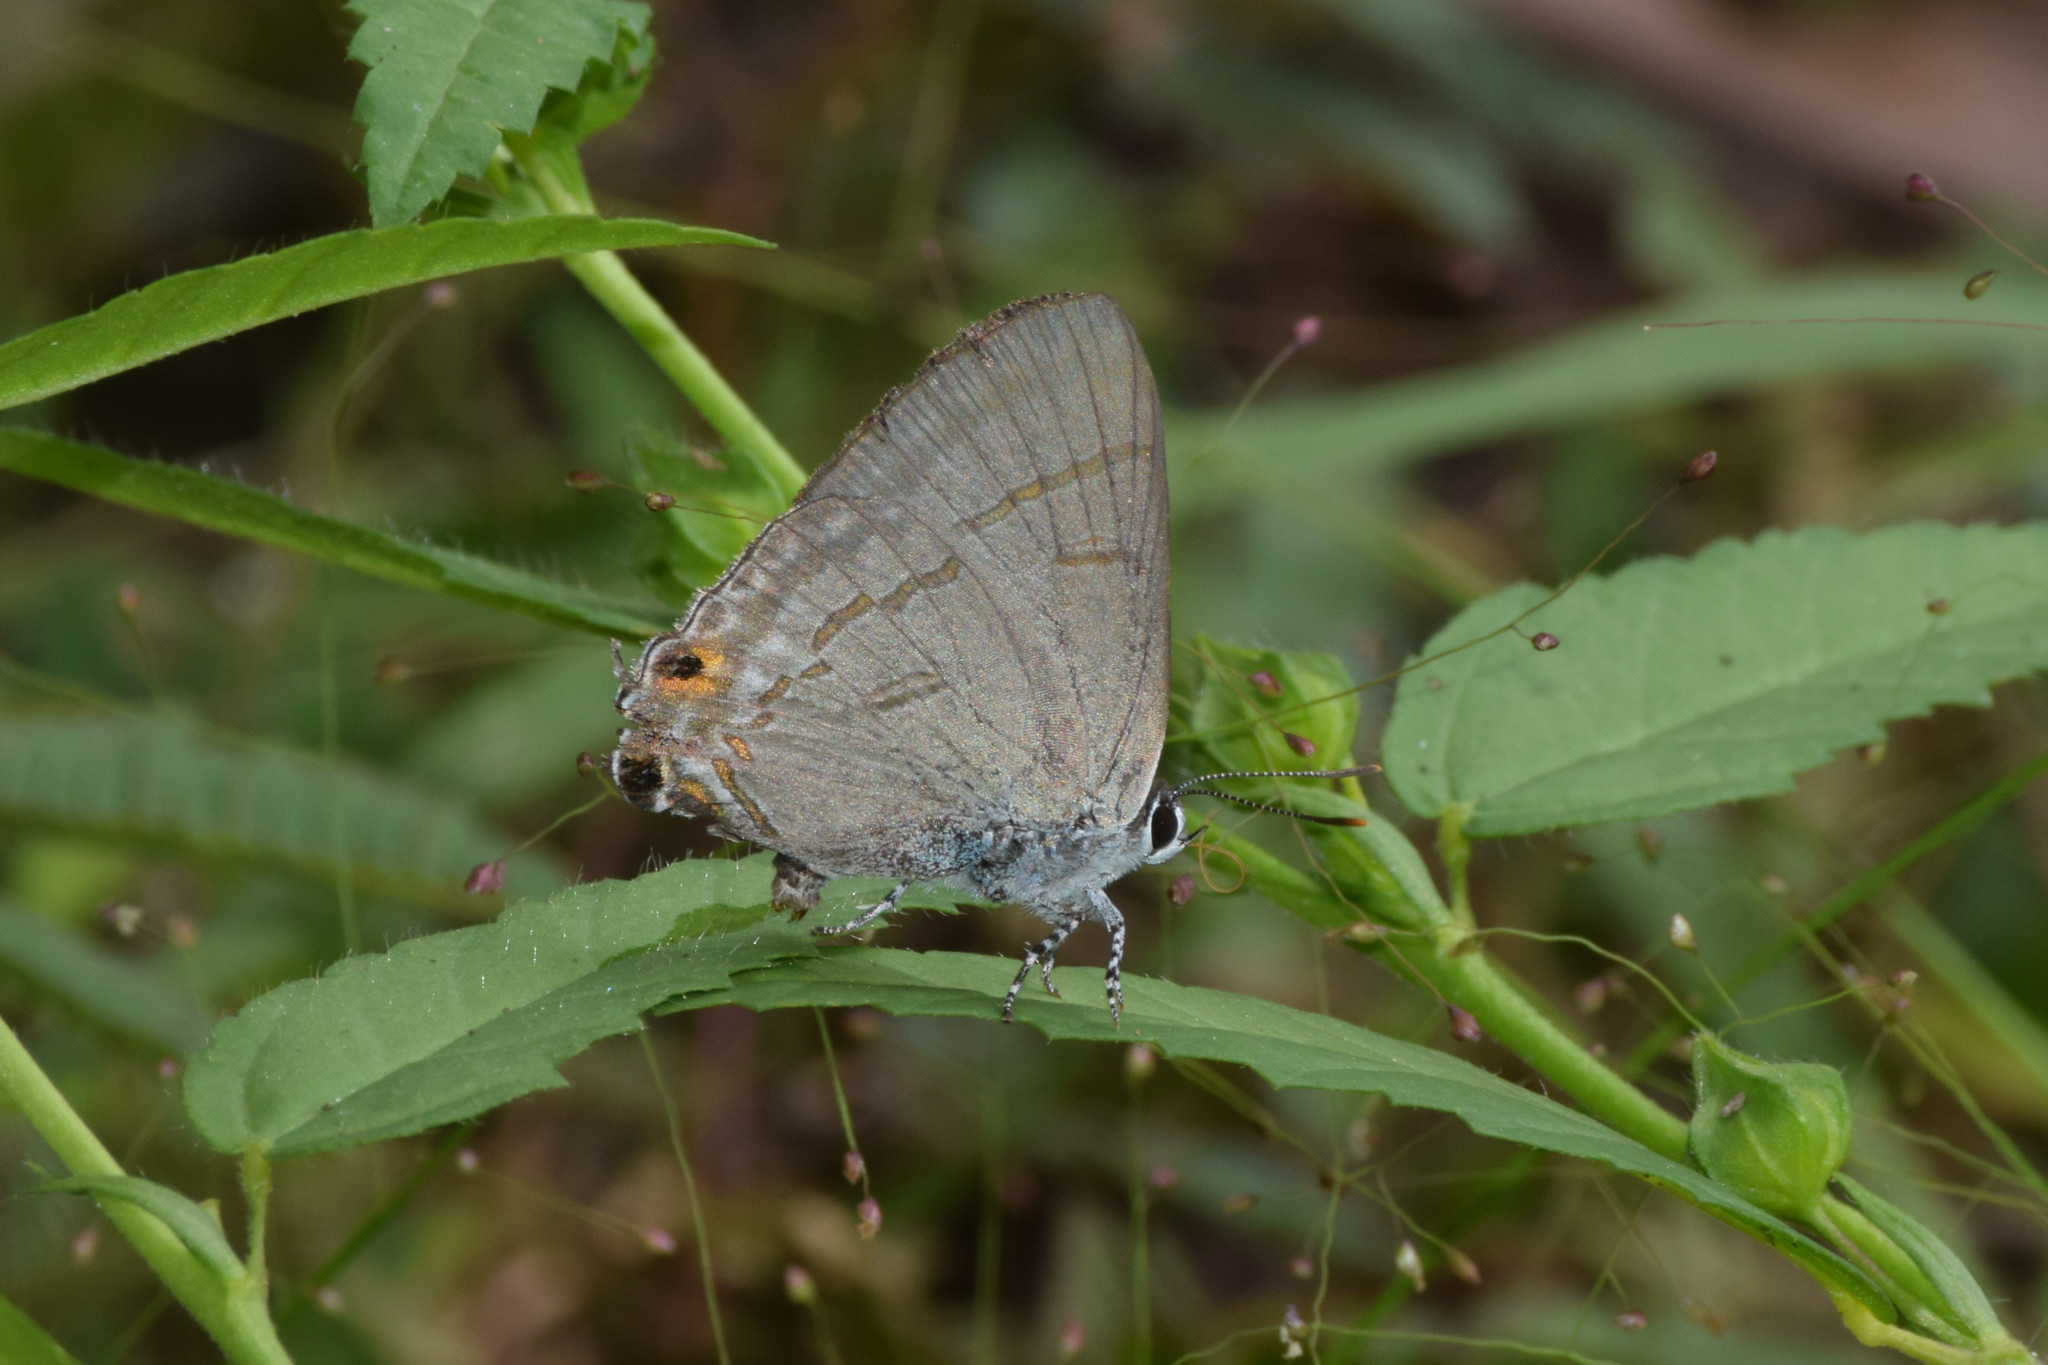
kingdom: Animalia
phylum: Arthropoda
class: Insecta
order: Lepidoptera
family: Lycaenidae
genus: Hypolycaena
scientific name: Hypolycaena erylus
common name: Common tit
